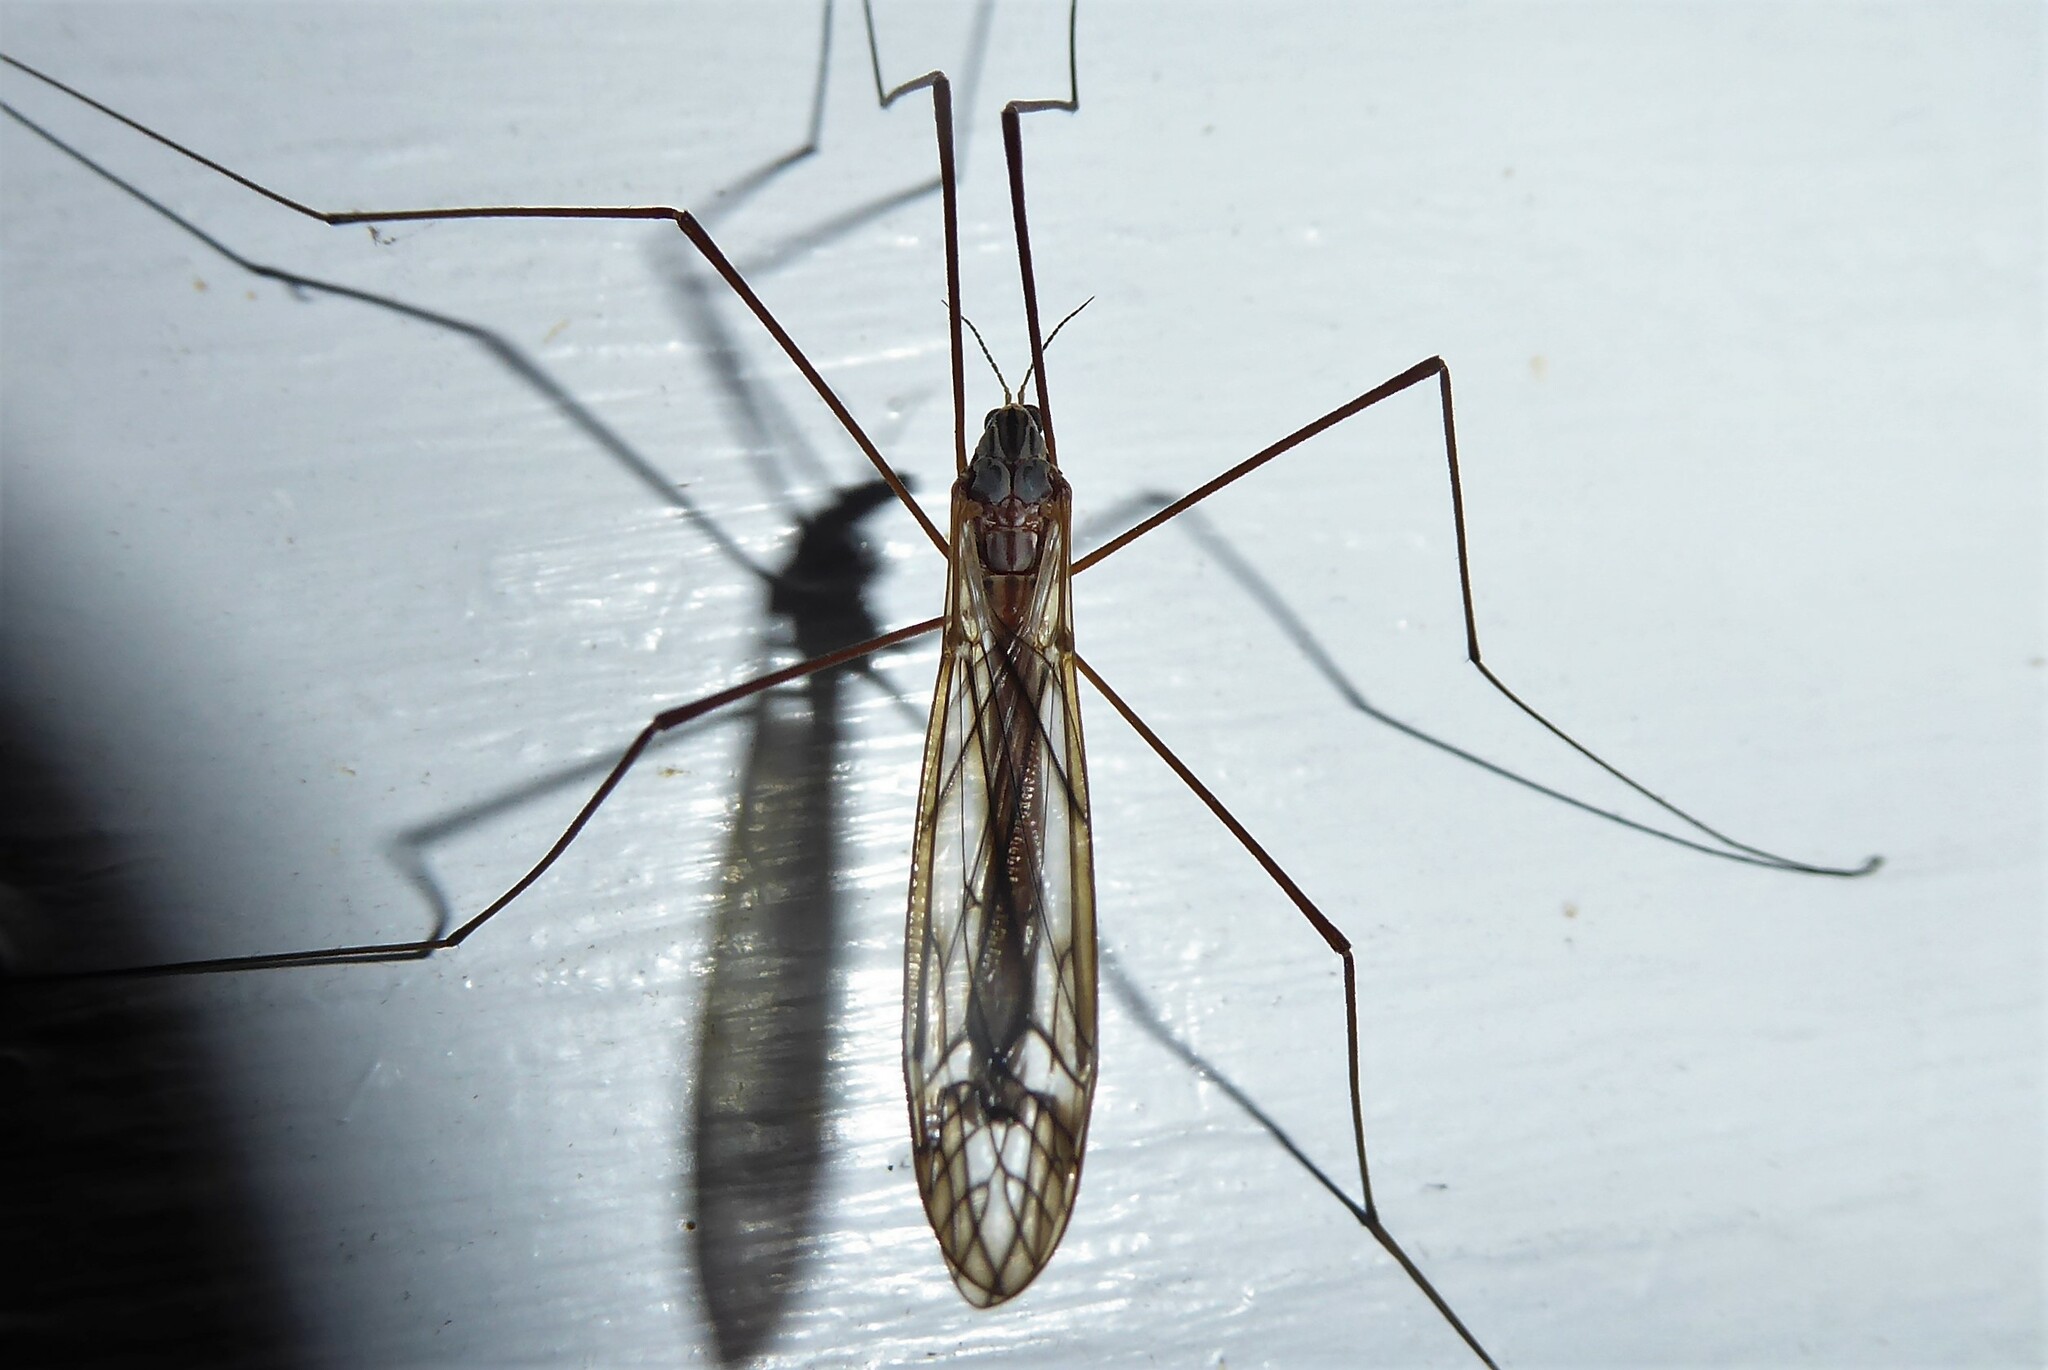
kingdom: Animalia
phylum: Arthropoda
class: Insecta
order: Diptera
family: Tipulidae
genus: Zelandotipula
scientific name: Zelandotipula novarae
